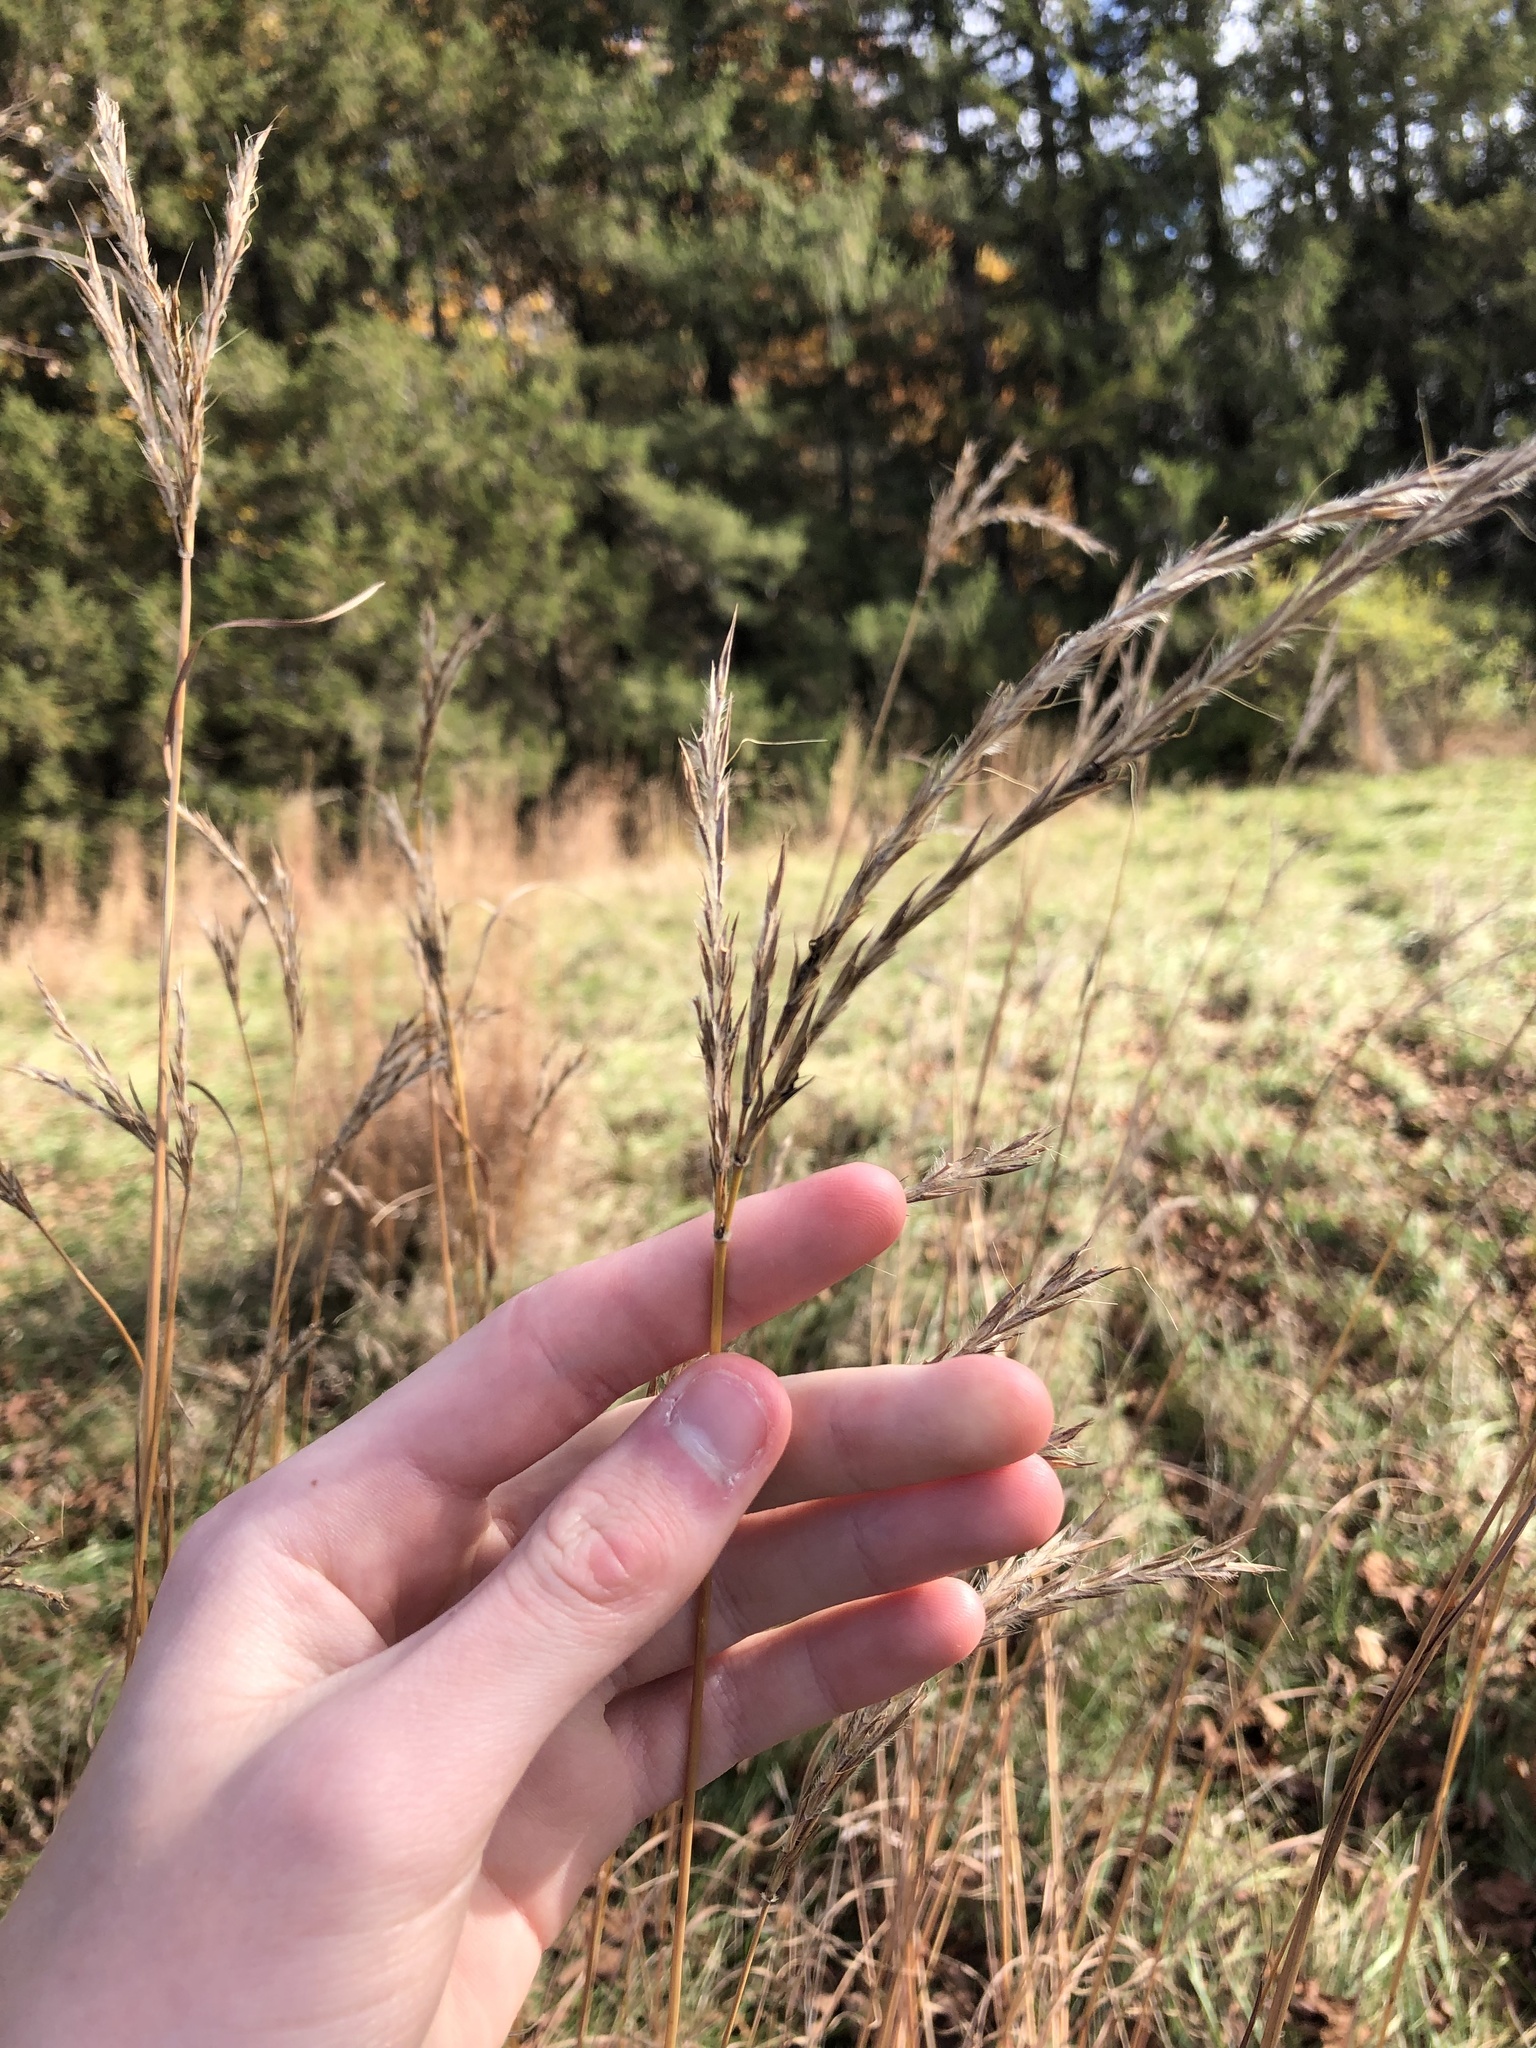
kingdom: Plantae
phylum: Tracheophyta
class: Liliopsida
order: Poales
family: Poaceae
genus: Andropogon
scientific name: Andropogon gerardi
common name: Big bluestem
